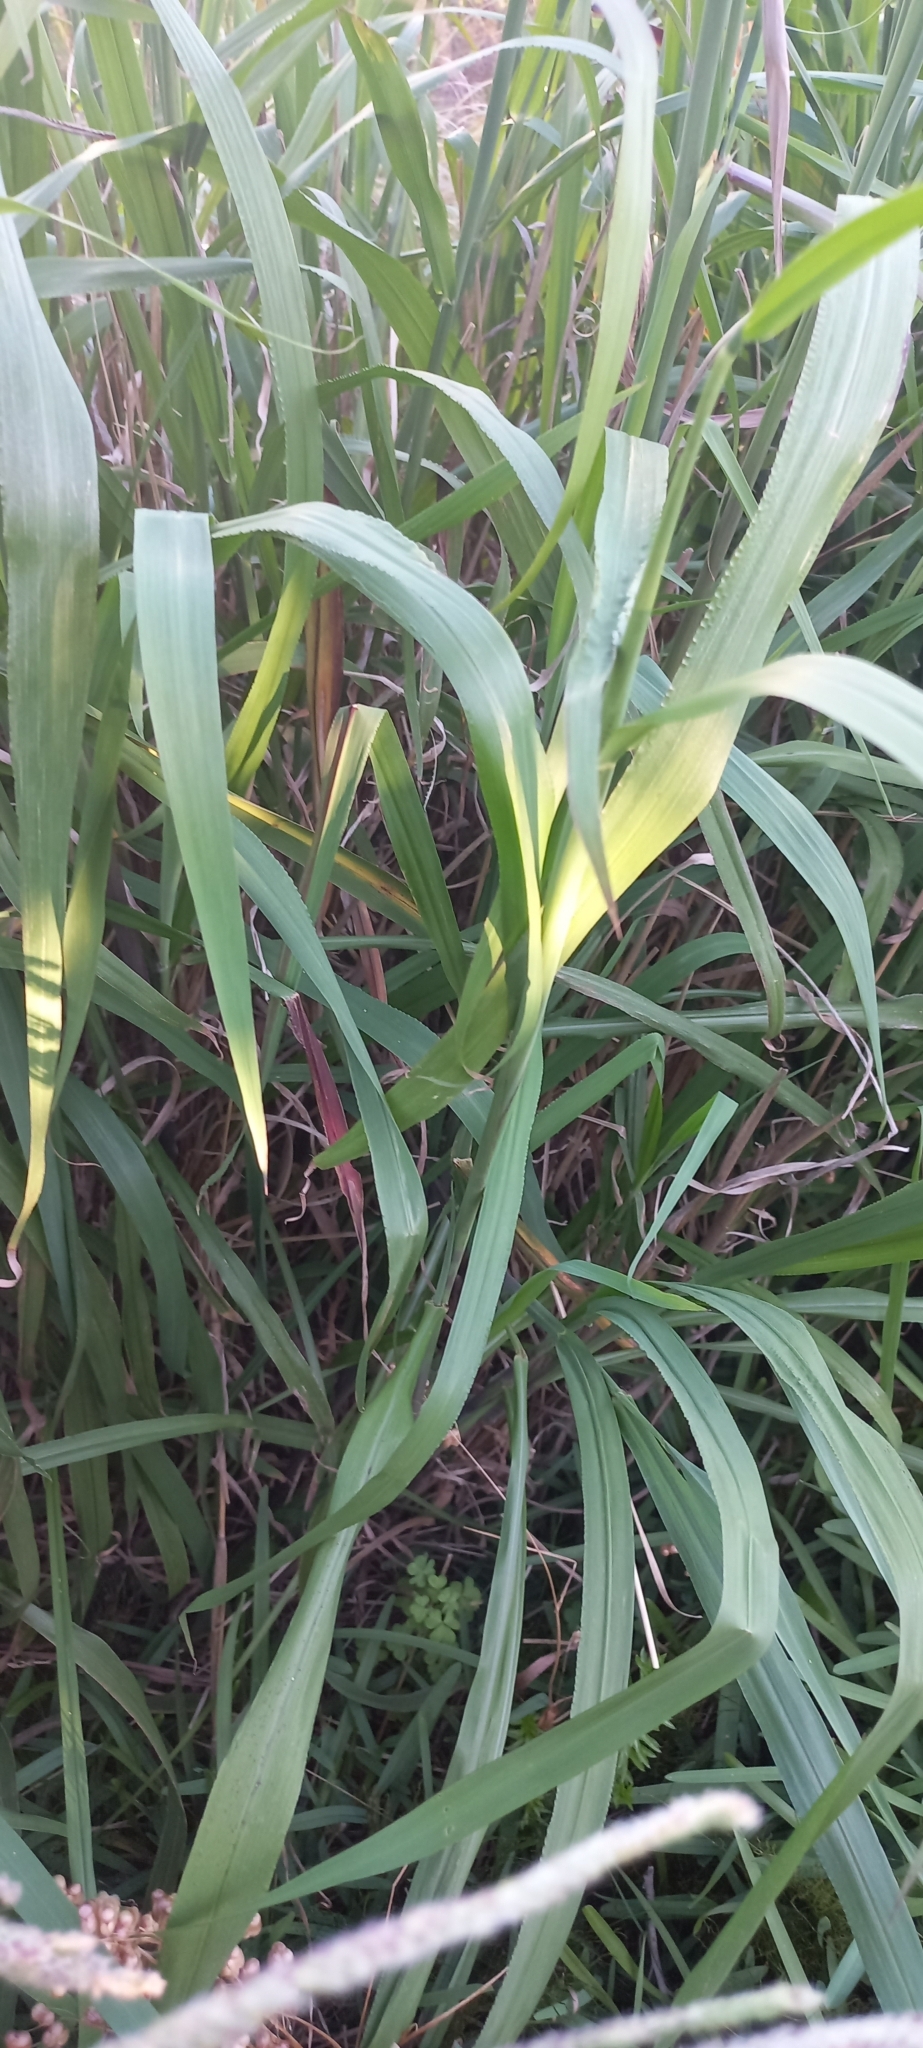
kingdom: Plantae
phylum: Tracheophyta
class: Liliopsida
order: Poales
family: Poaceae
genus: Paspalum
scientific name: Paspalum urvillei
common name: Vasey's grass
